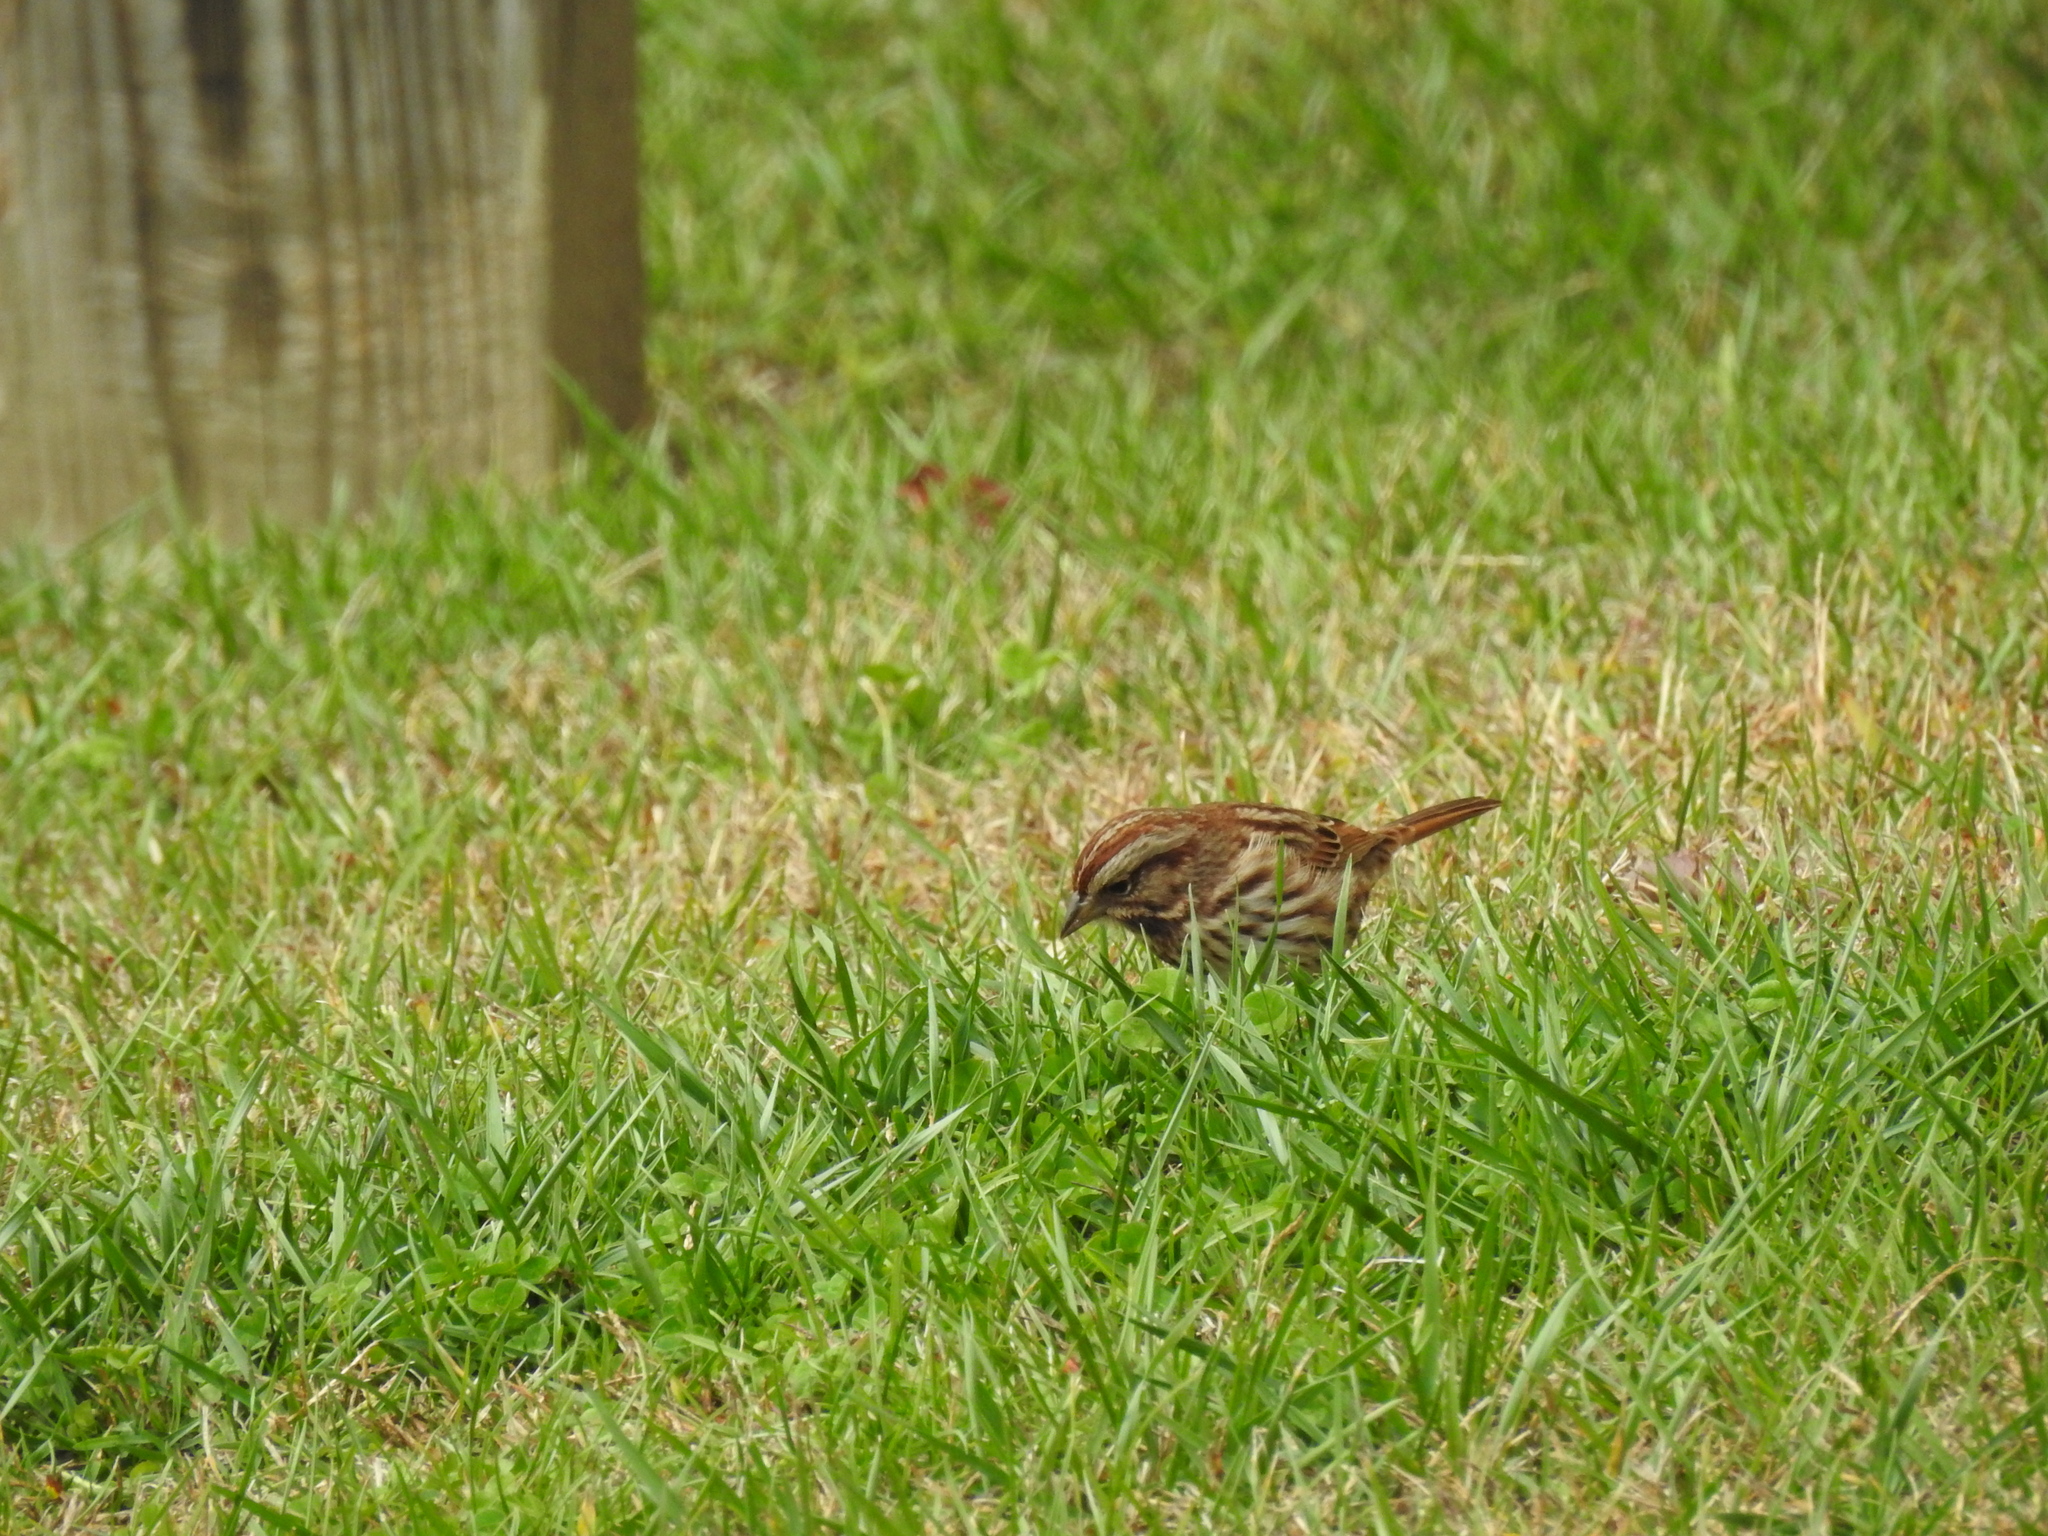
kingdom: Animalia
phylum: Chordata
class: Aves
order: Passeriformes
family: Passerellidae
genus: Melospiza
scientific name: Melospiza melodia
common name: Song sparrow
